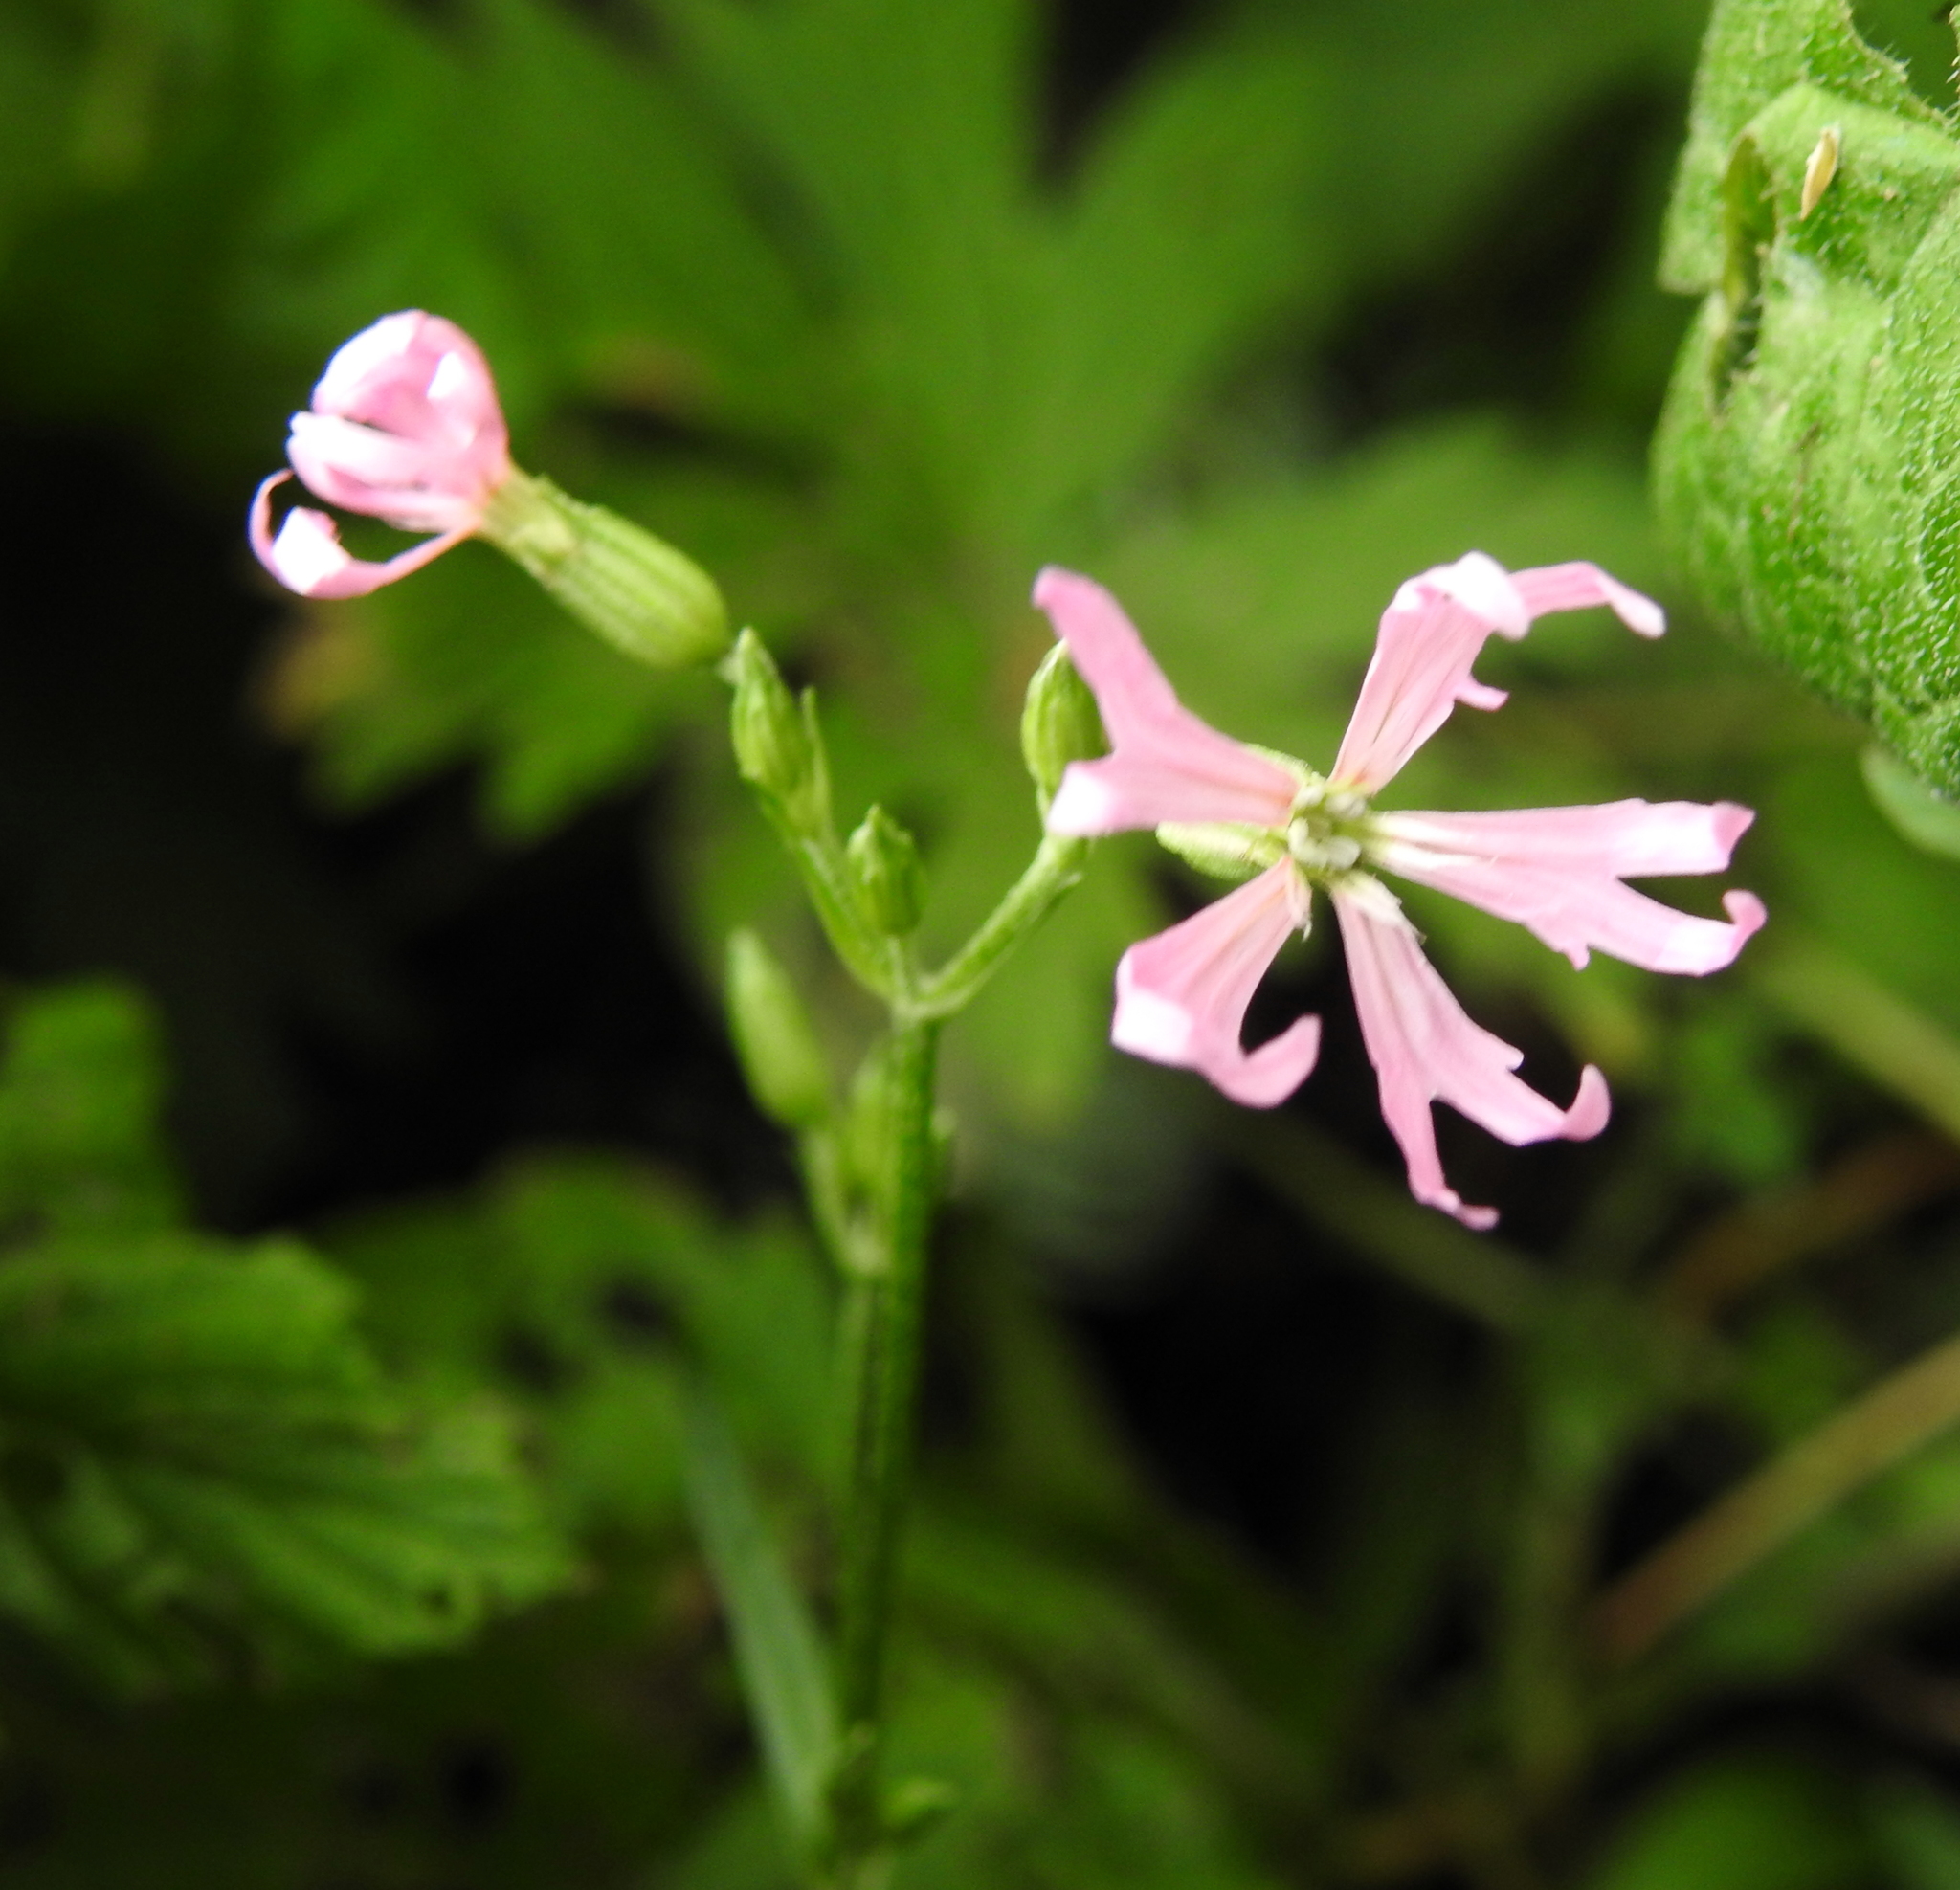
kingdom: Plantae
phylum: Tracheophyta
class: Magnoliopsida
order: Caryophyllales
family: Caryophyllaceae
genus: Silene
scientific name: Silene flos-cuculi
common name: Ragged-robin
